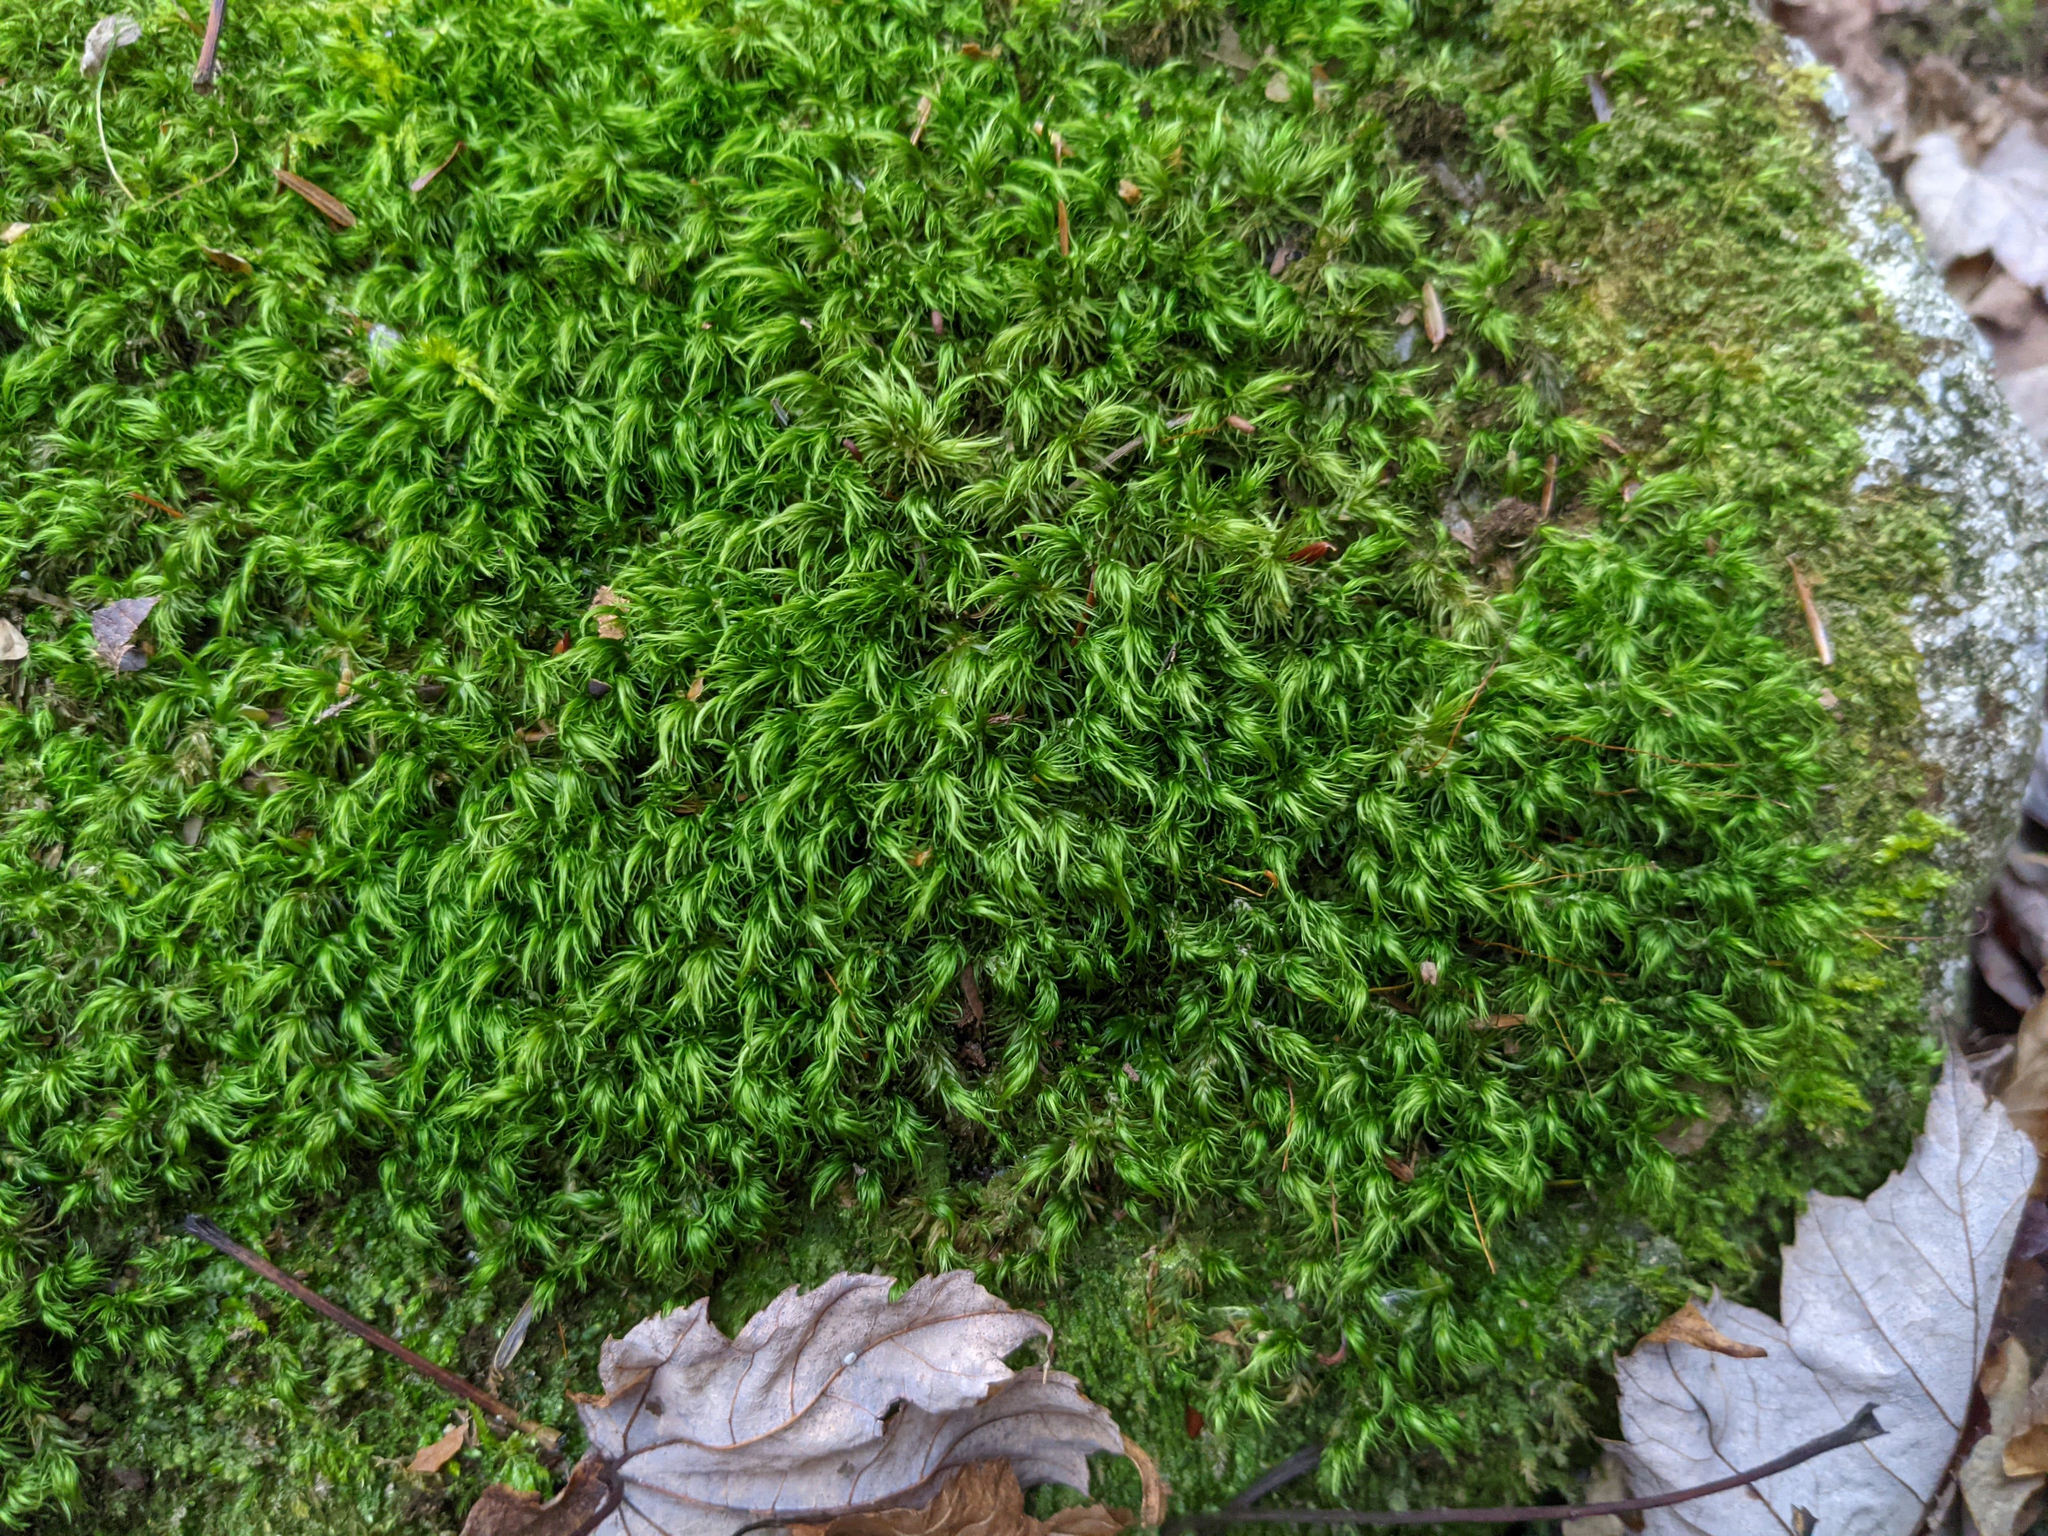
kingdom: Plantae
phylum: Bryophyta
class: Bryopsida
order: Dicranales
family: Dicranaceae
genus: Dicranum
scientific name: Dicranum scoparium
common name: Broom fork-moss
